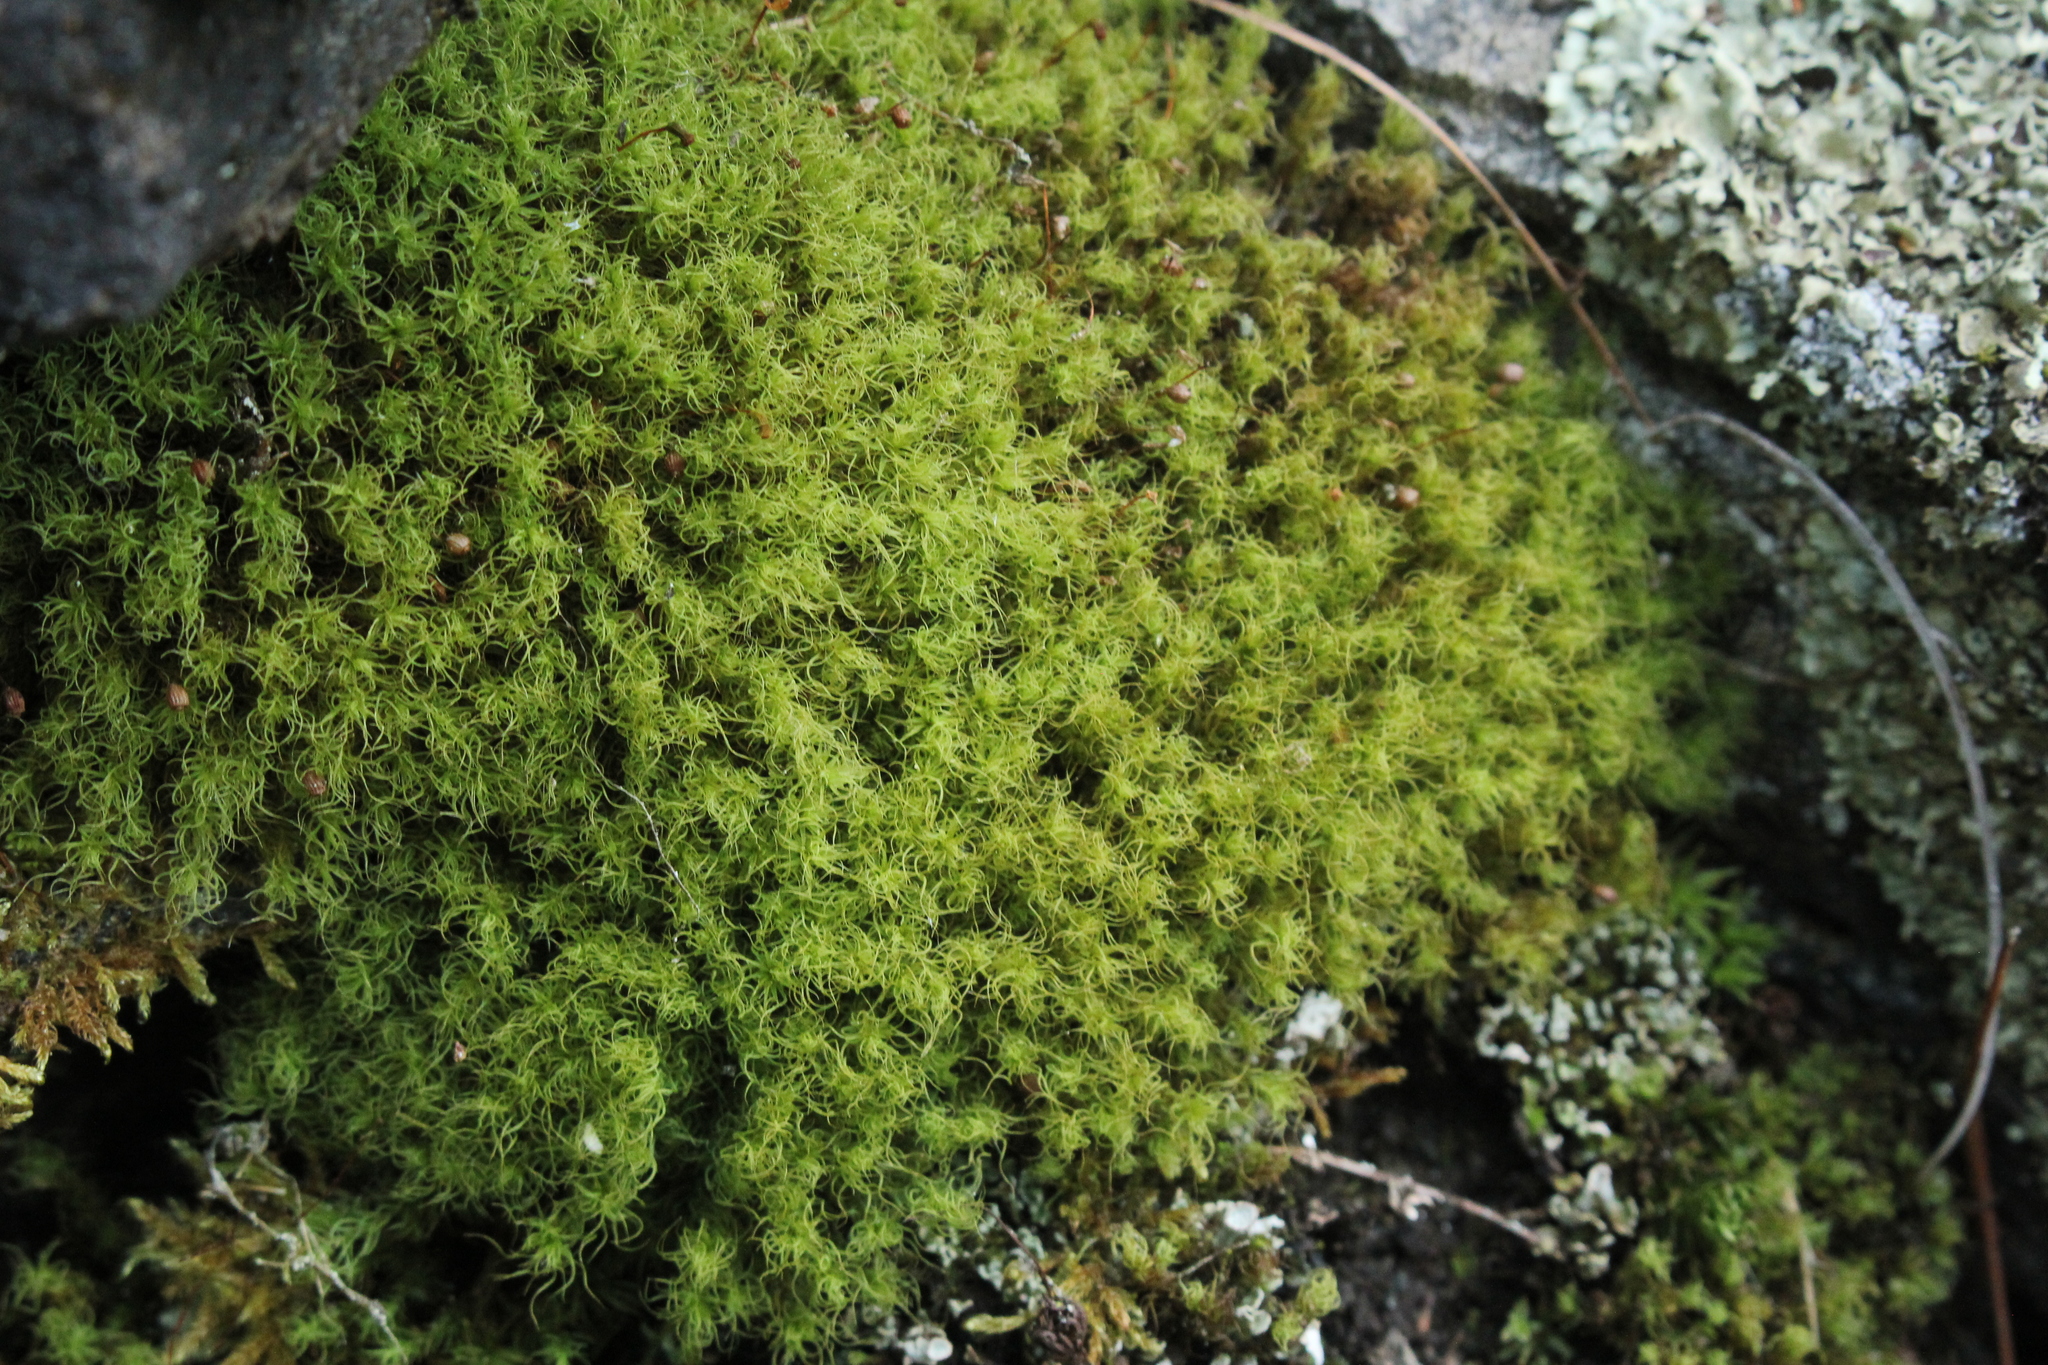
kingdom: Plantae
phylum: Bryophyta
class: Bryopsida
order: Bartramiales
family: Bartramiaceae
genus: Bartramia
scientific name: Bartramia ithyphylla
